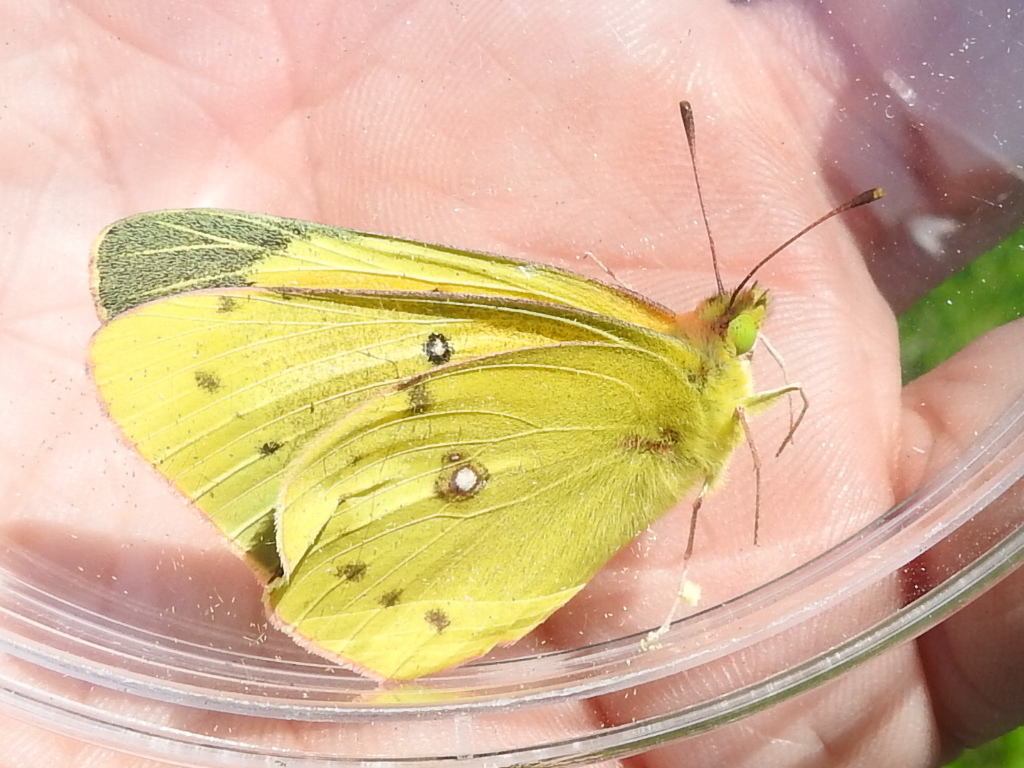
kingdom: Animalia
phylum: Arthropoda
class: Insecta
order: Lepidoptera
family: Pieridae
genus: Colias
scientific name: Colias eurytheme
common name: Alfalfa butterfly
